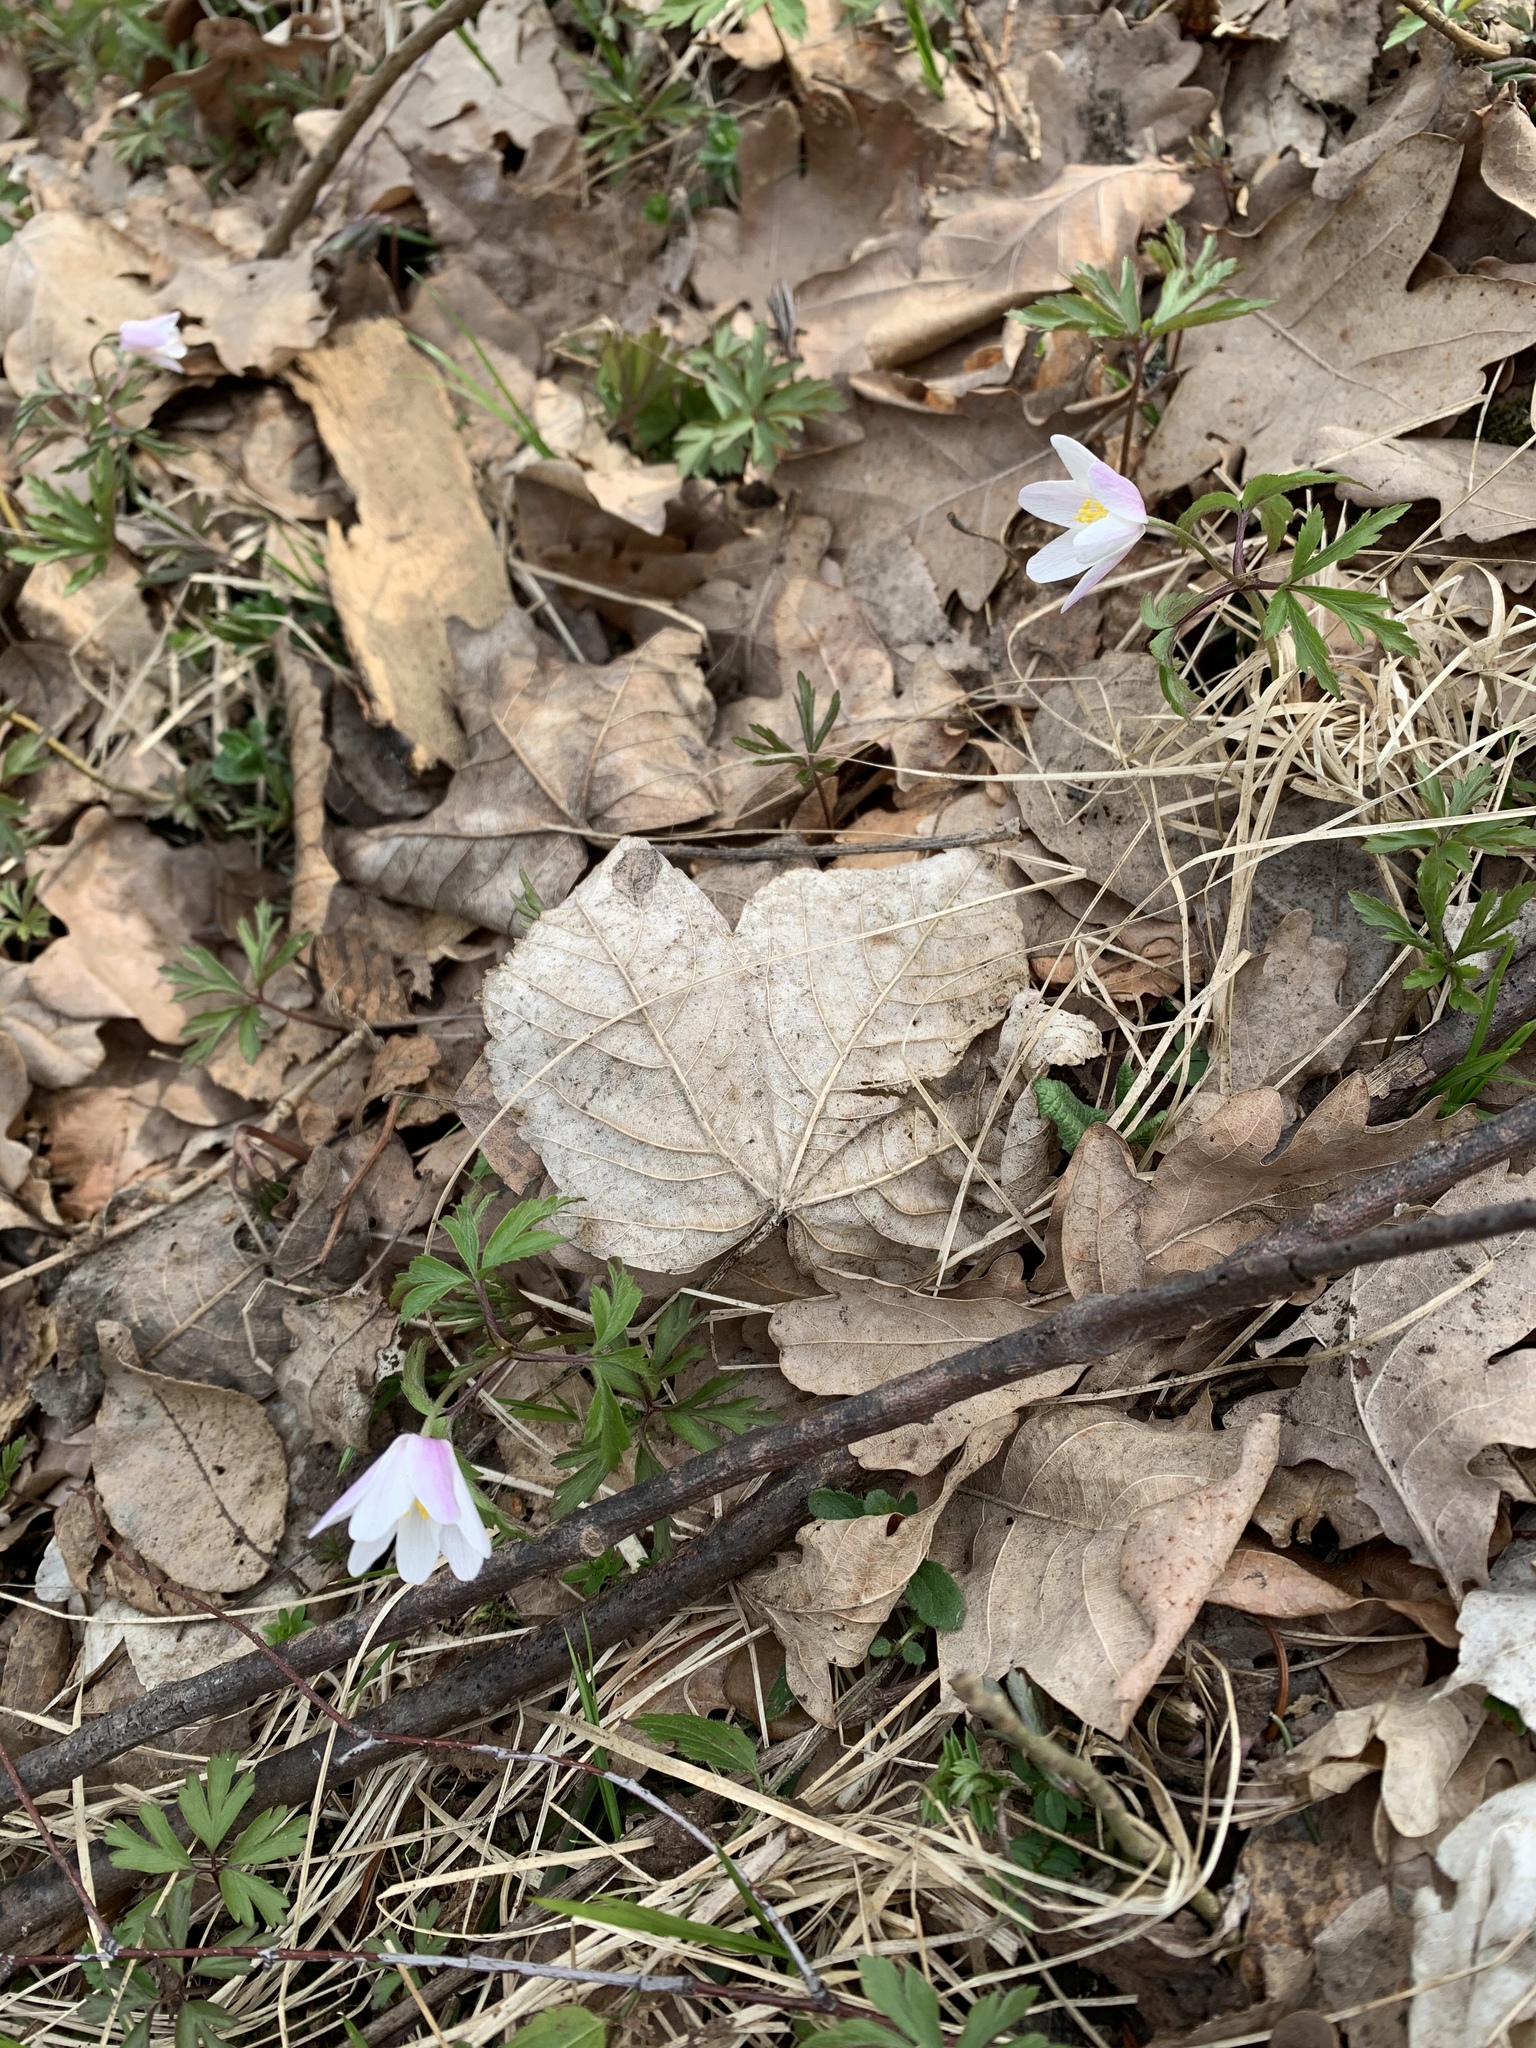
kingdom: Plantae
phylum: Tracheophyta
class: Magnoliopsida
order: Ranunculales
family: Ranunculaceae
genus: Anemone
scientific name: Anemone nemorosa
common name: Wood anemone
